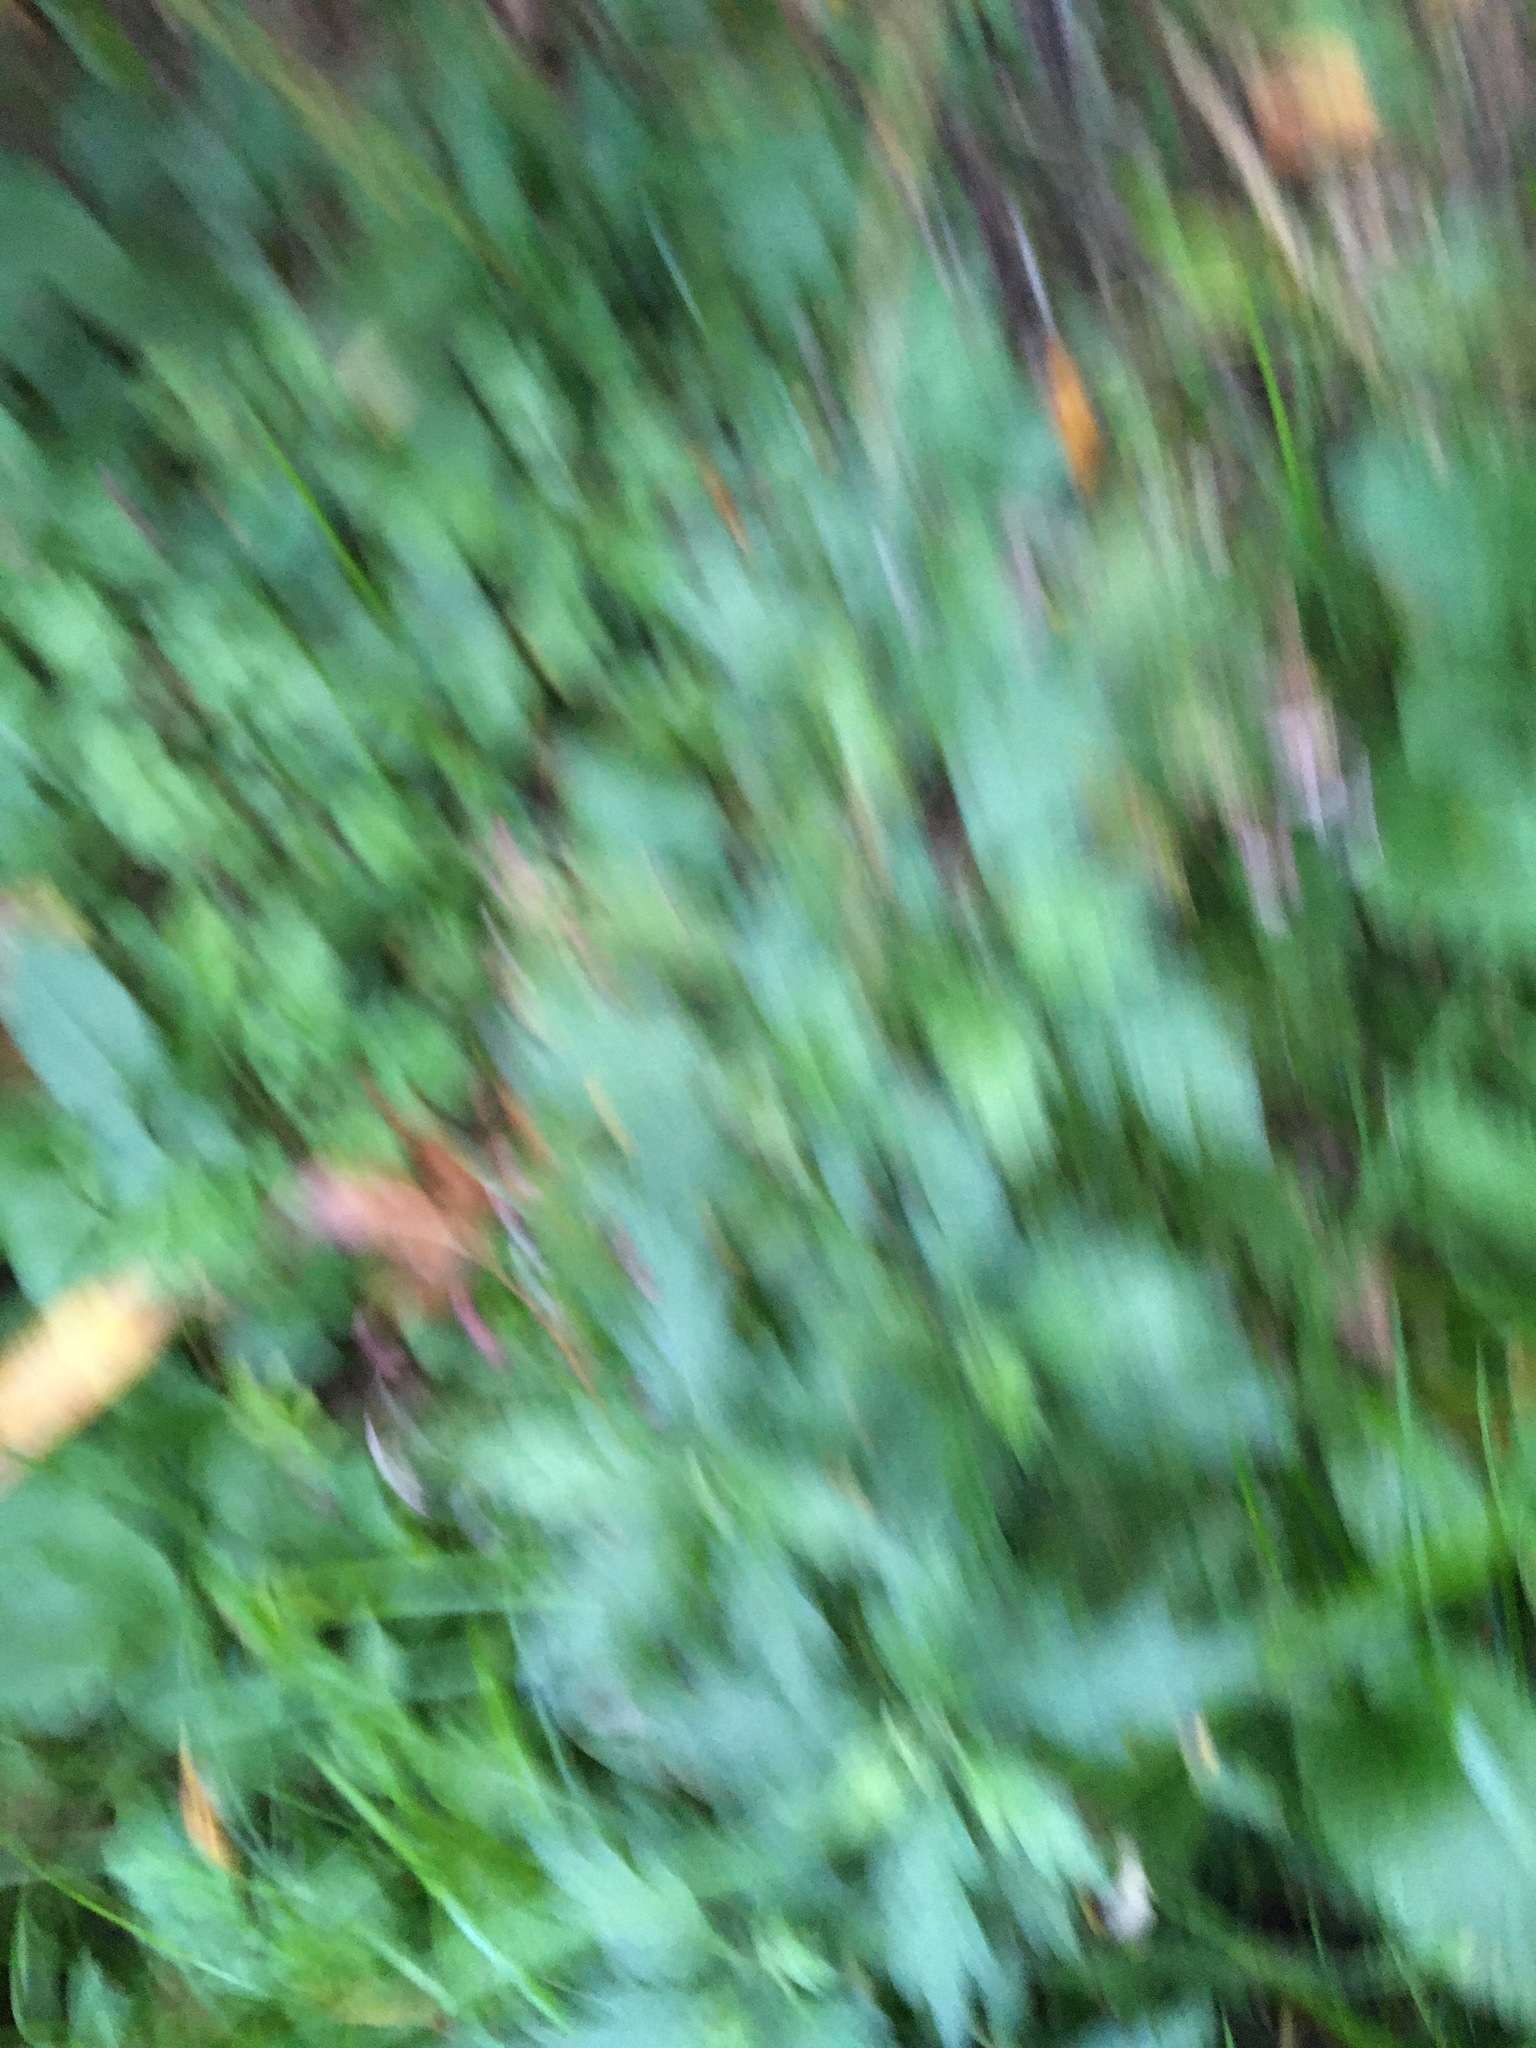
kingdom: Plantae
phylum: Tracheophyta
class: Magnoliopsida
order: Asterales
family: Asteraceae
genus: Artemisia
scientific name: Artemisia vulgaris
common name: Mugwort
